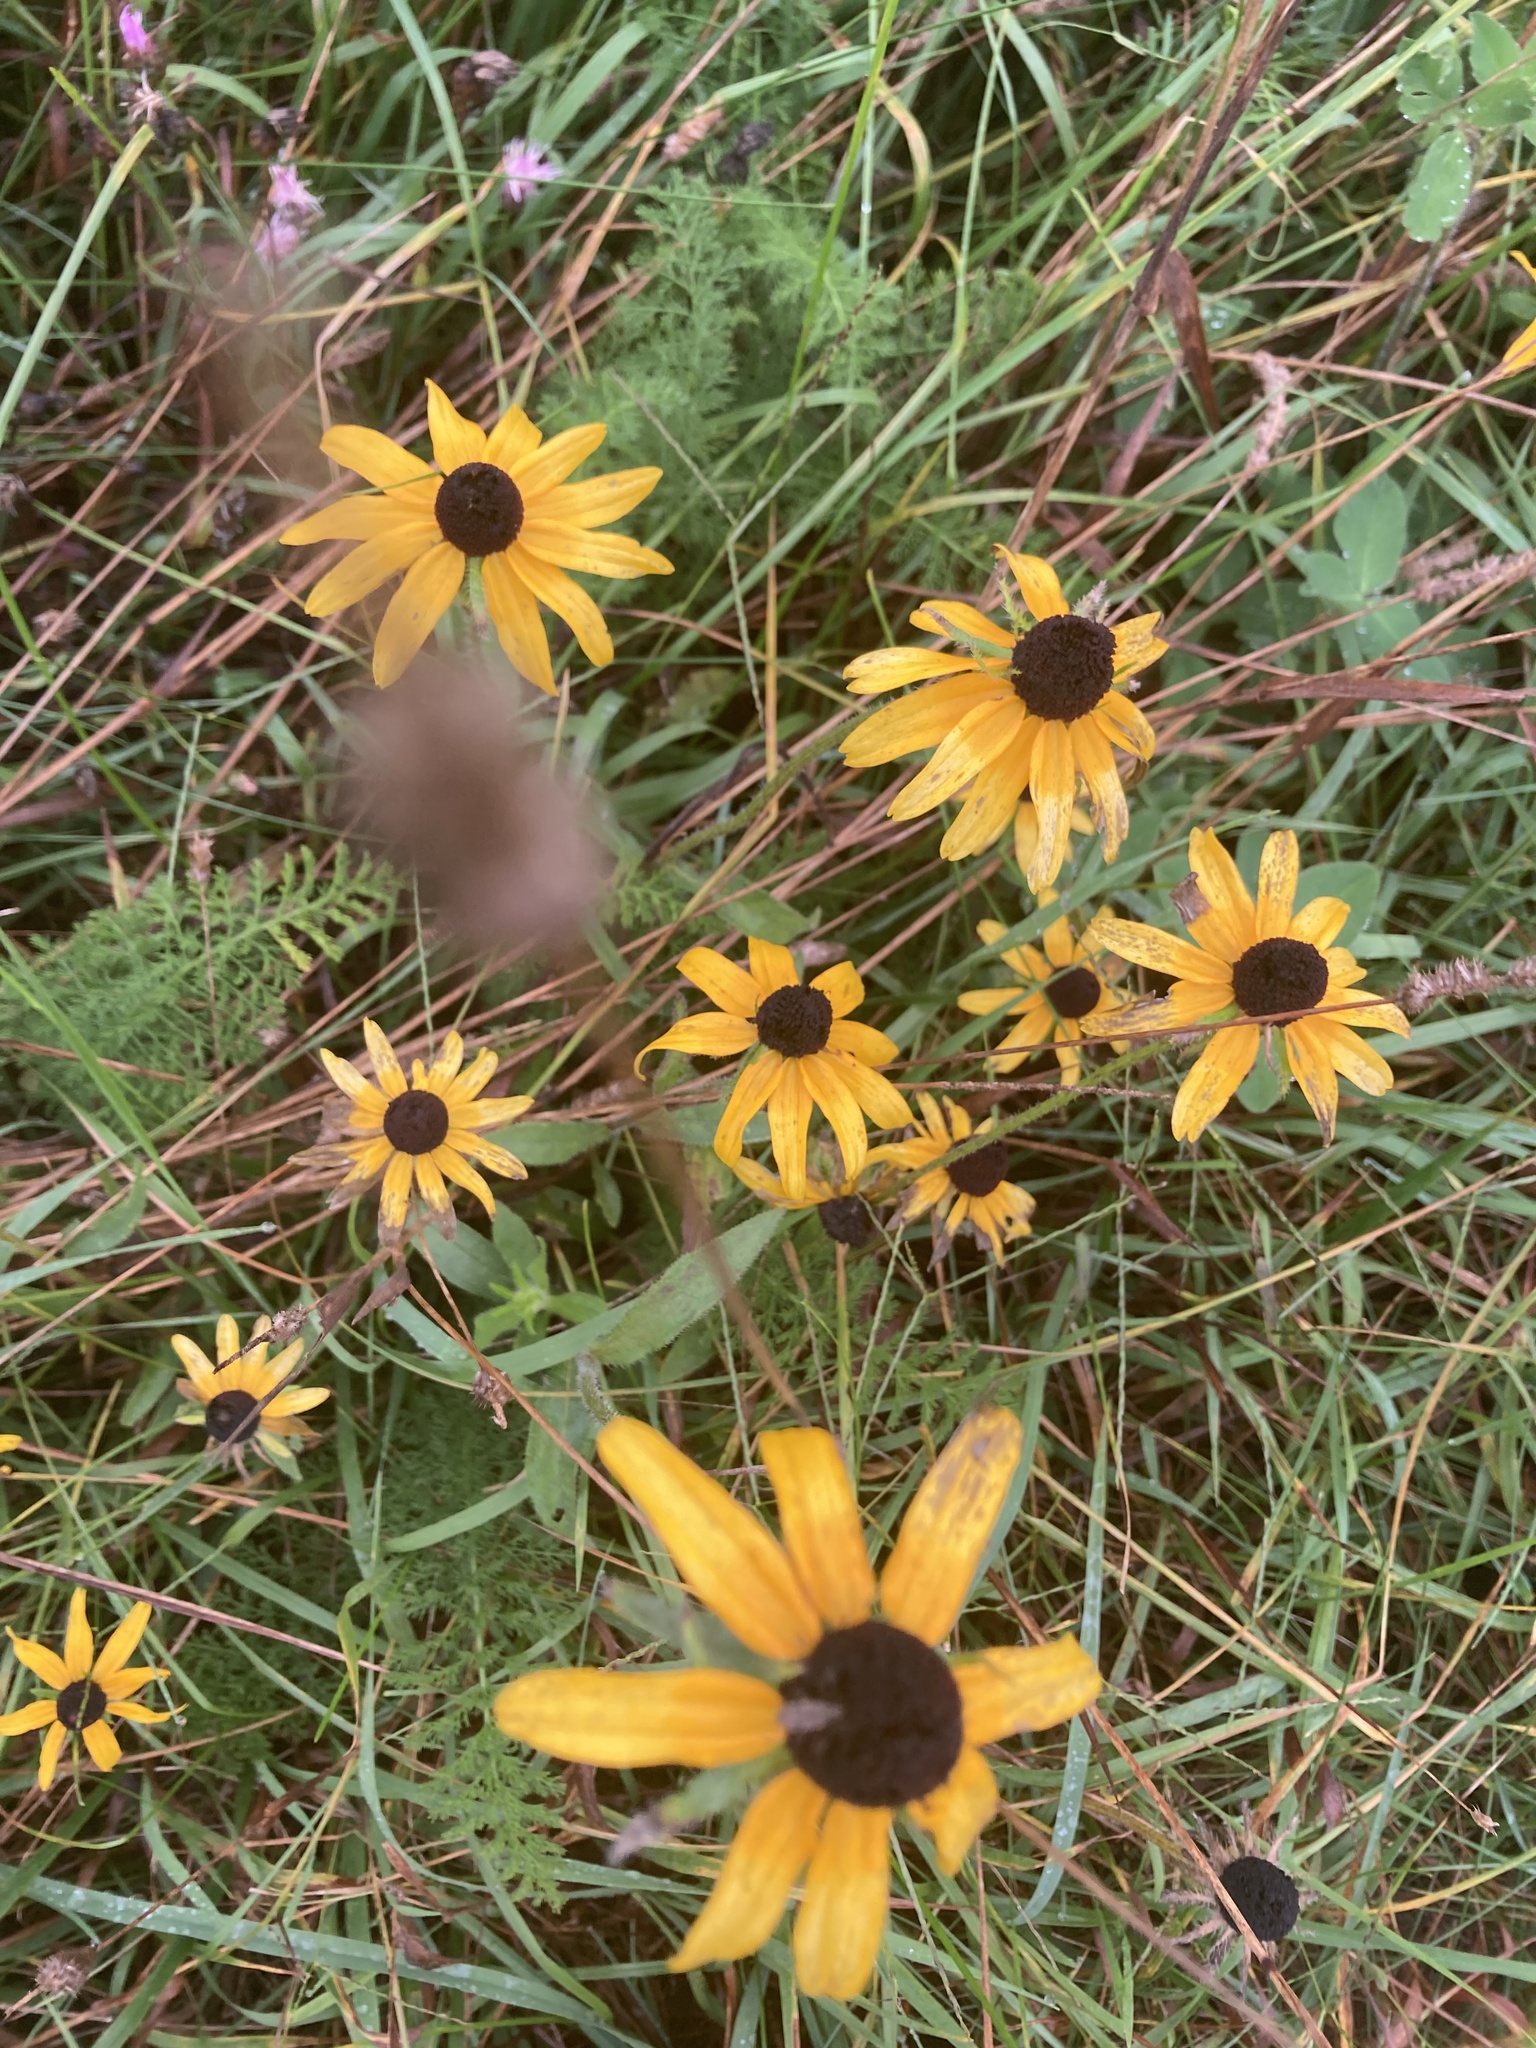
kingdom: Plantae
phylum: Tracheophyta
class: Magnoliopsida
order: Asterales
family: Asteraceae
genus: Rudbeckia
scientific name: Rudbeckia hirta
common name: Black-eyed-susan
